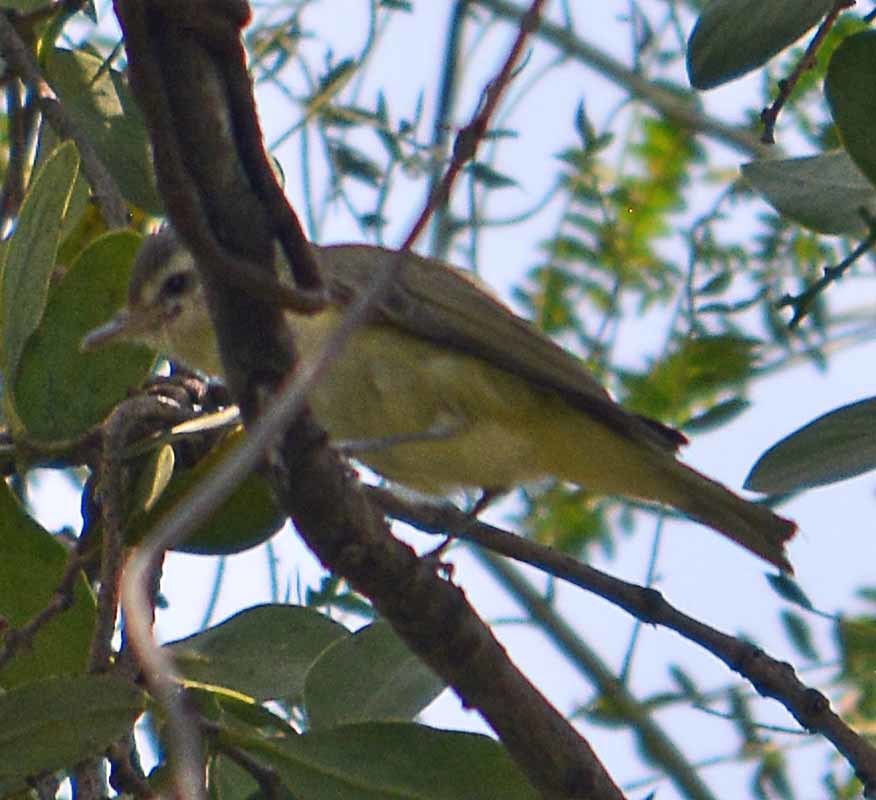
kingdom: Animalia
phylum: Chordata
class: Aves
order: Passeriformes
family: Vireonidae
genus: Vireo
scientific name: Vireo gilvus
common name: Warbling vireo
